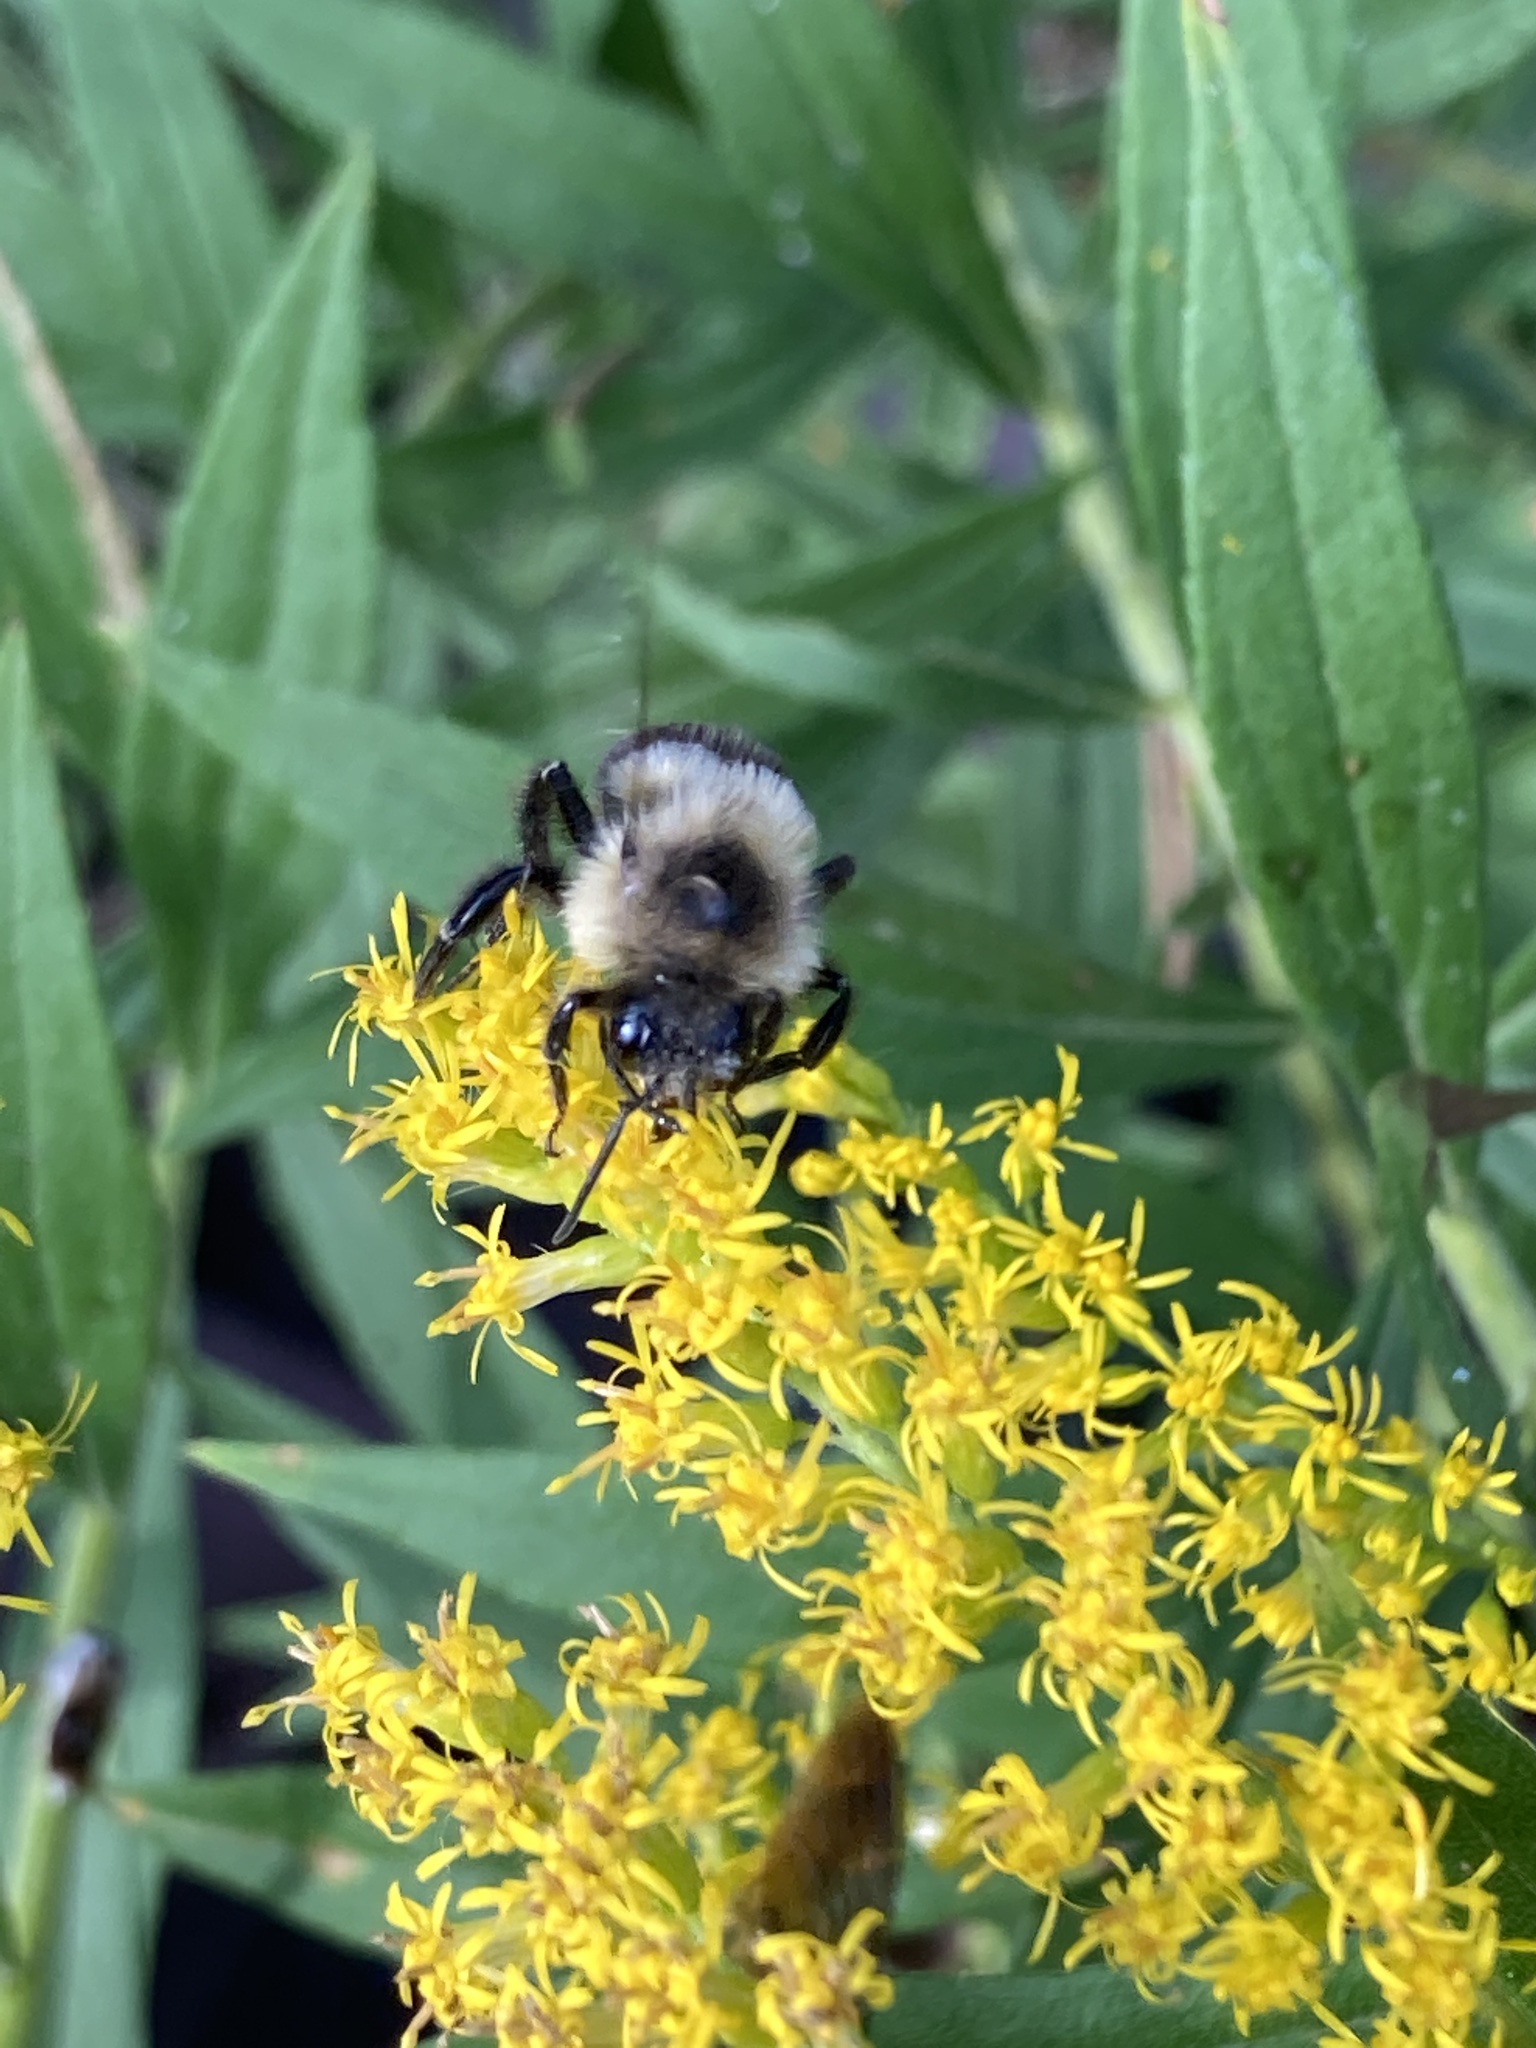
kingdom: Animalia
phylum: Arthropoda
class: Insecta
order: Hymenoptera
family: Apidae
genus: Bombus
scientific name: Bombus impatiens
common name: Common eastern bumble bee
